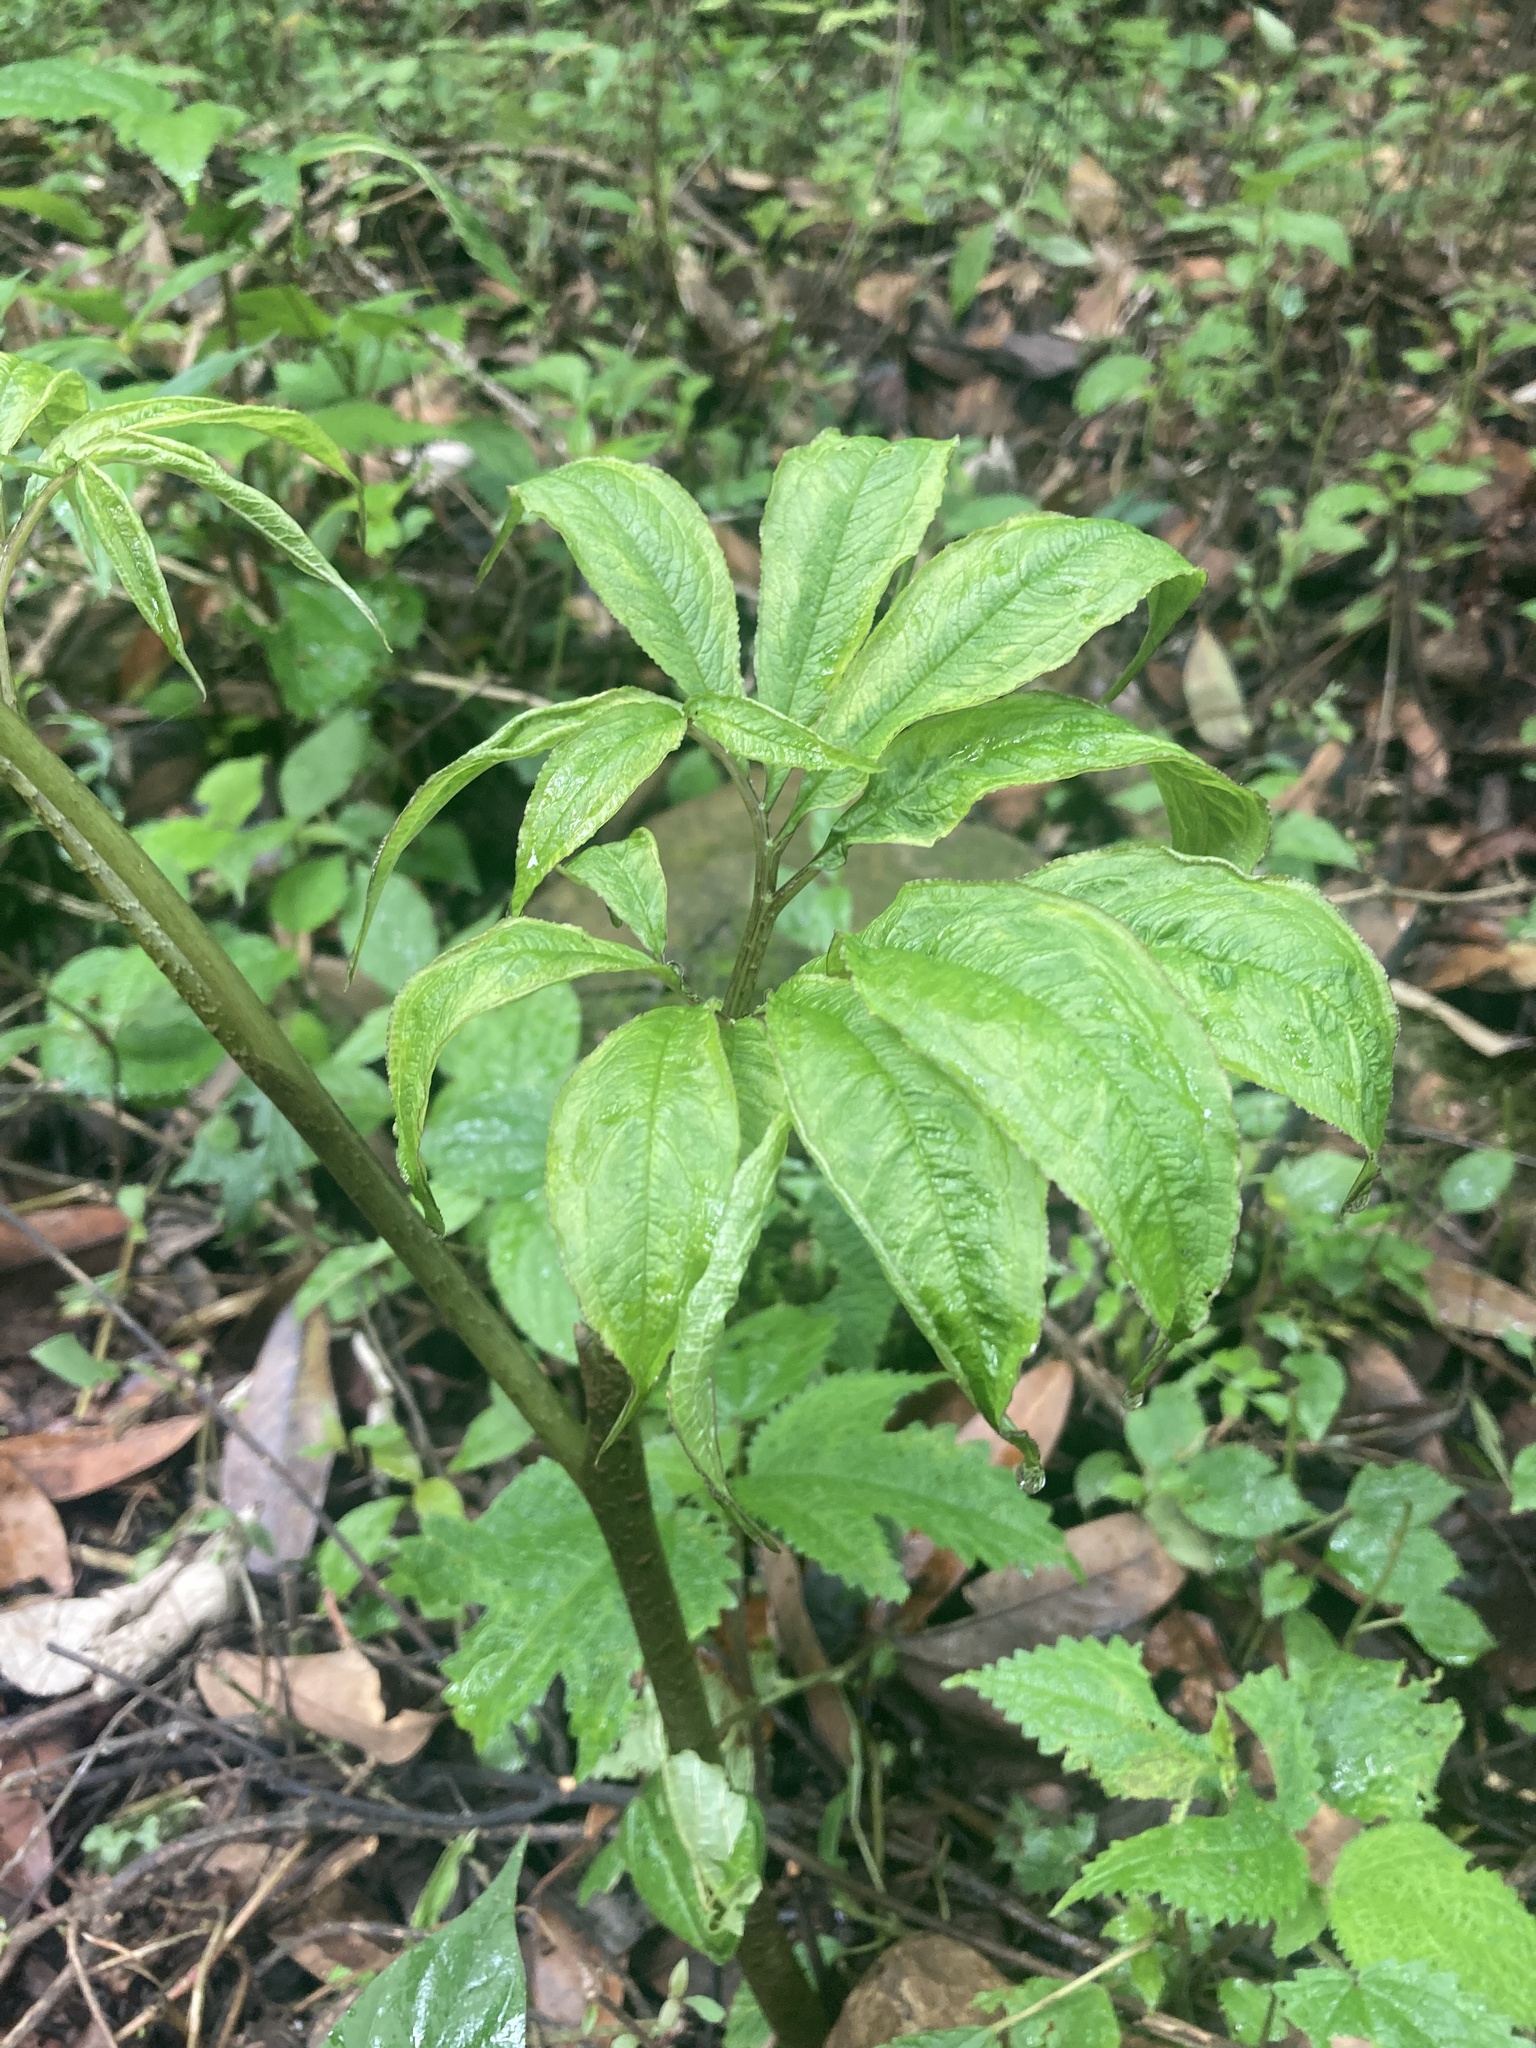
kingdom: Plantae
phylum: Tracheophyta
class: Liliopsida
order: Alismatales
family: Araceae
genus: Arisaema
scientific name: Arisaema tortuosum
